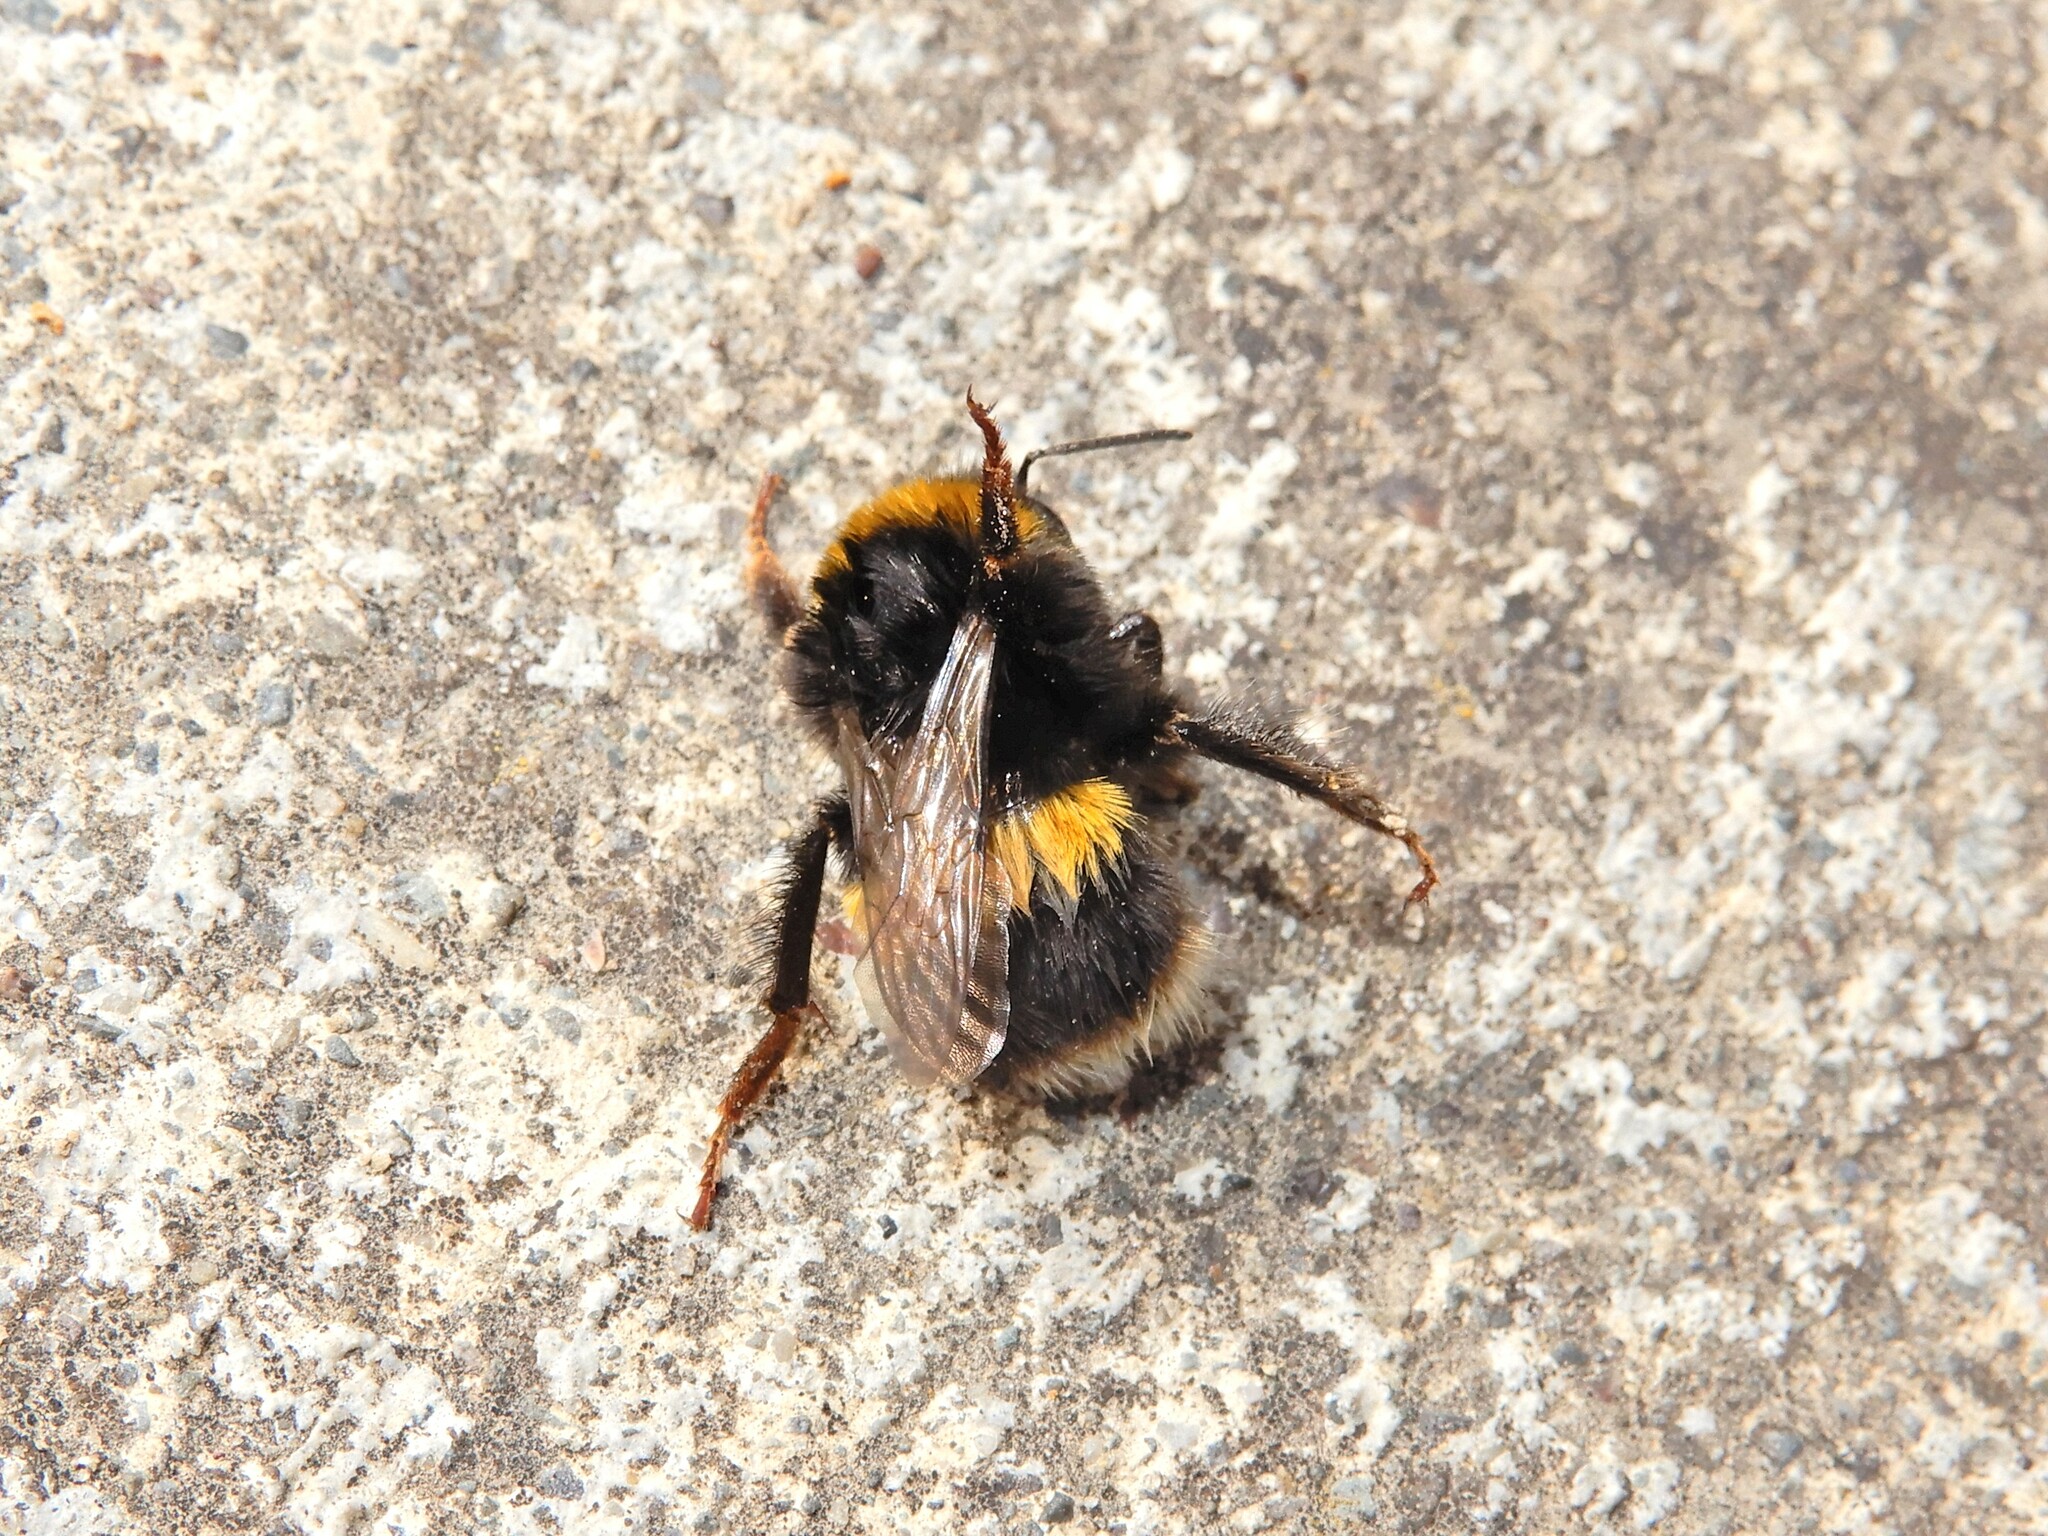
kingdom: Animalia
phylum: Arthropoda
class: Insecta
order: Hymenoptera
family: Apidae
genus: Bombus
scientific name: Bombus terrestris
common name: Buff-tailed bumblebee
